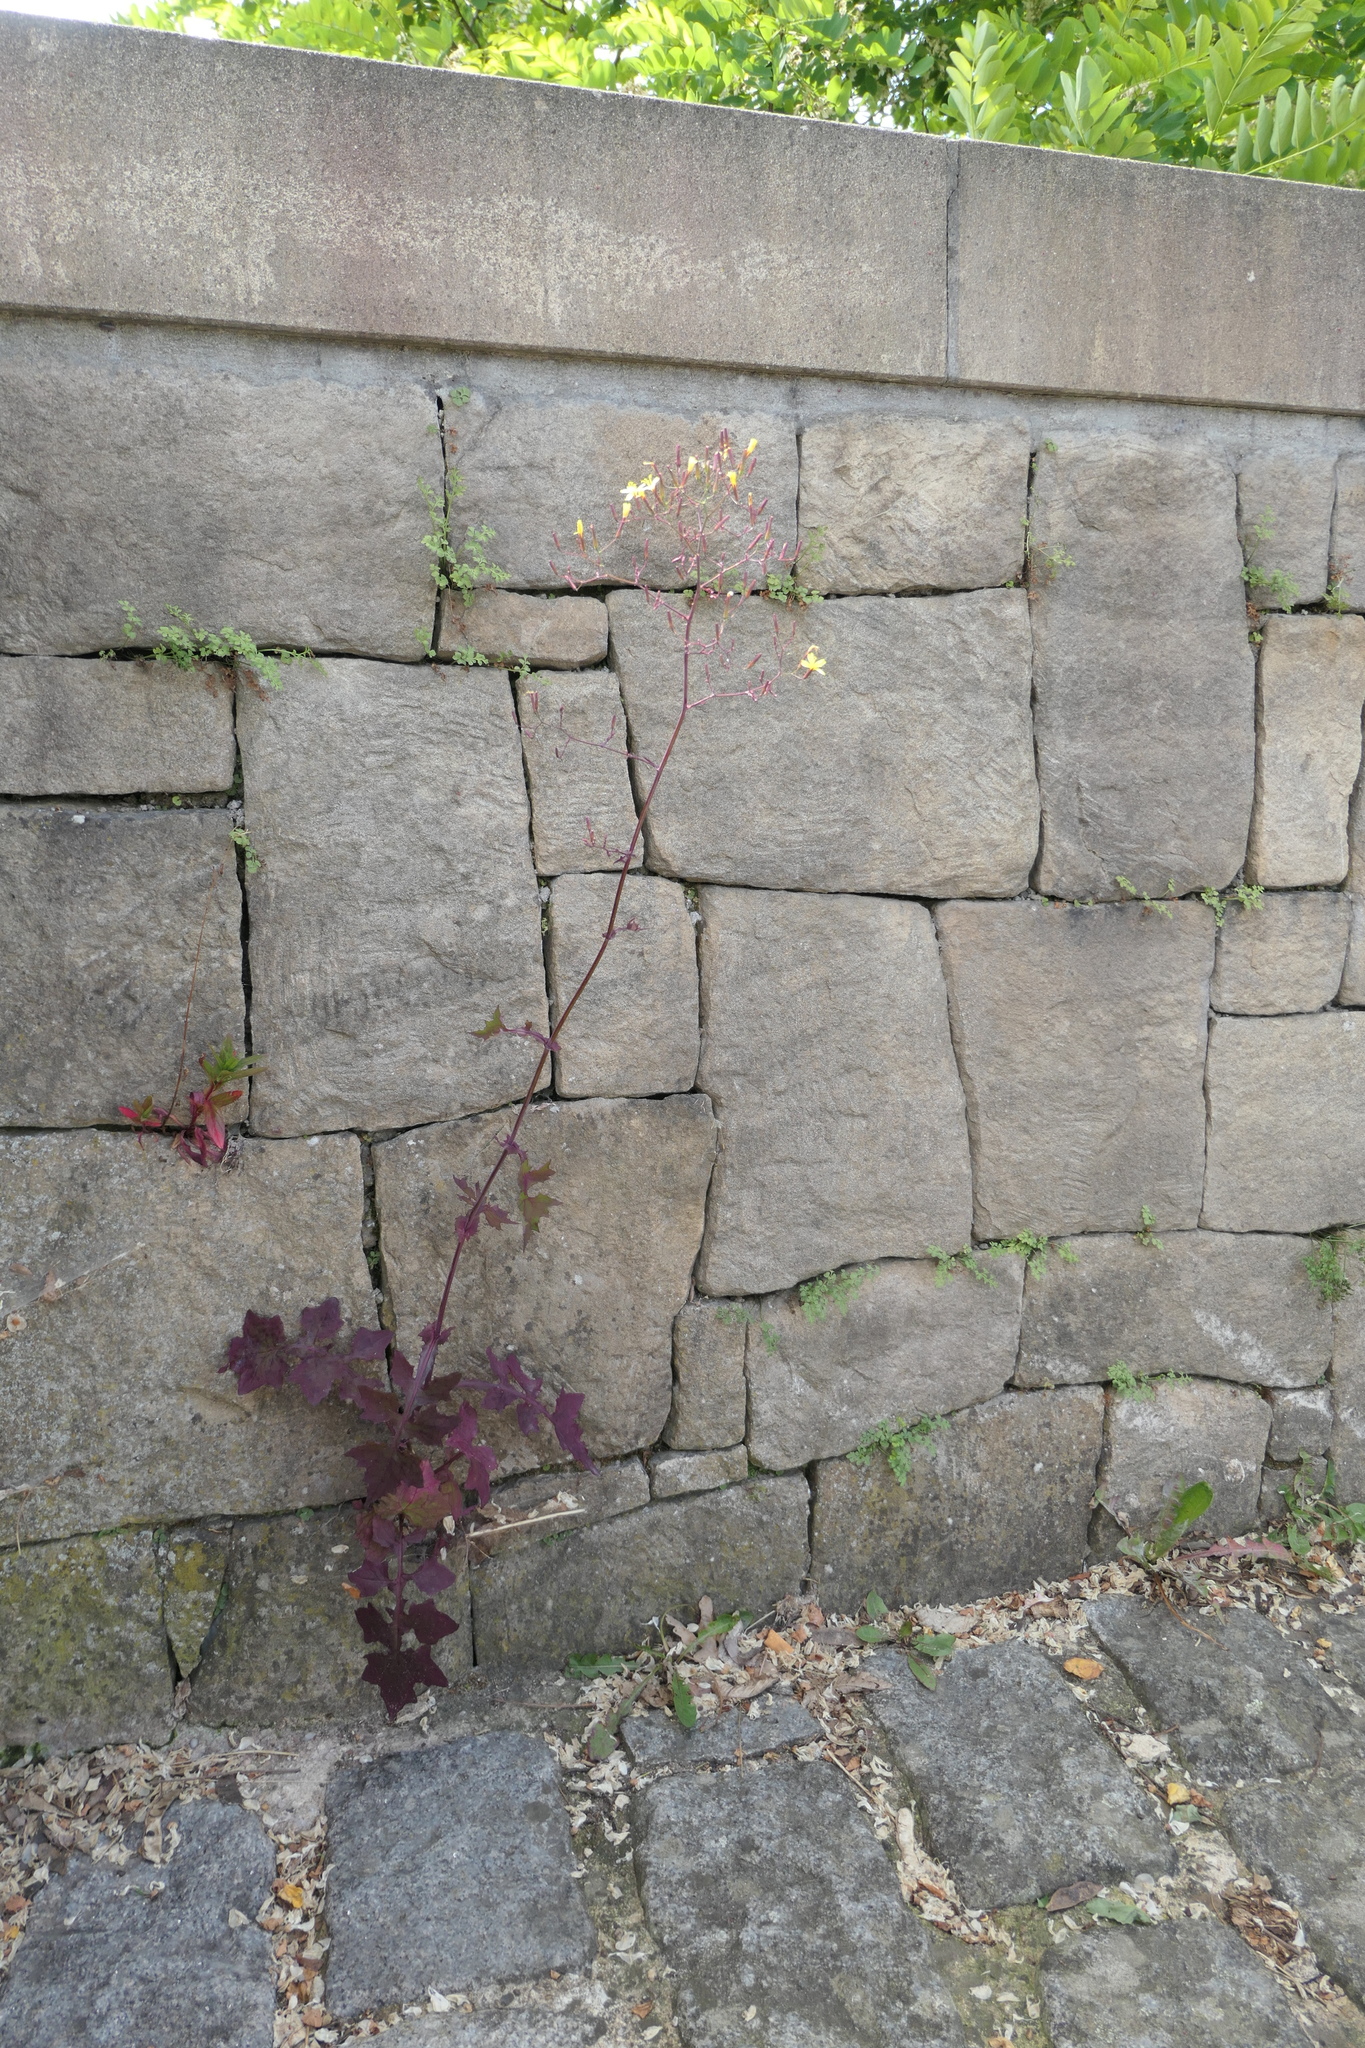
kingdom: Plantae
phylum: Tracheophyta
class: Magnoliopsida
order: Asterales
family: Asteraceae
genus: Mycelis
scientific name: Mycelis muralis
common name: Wall lettuce
